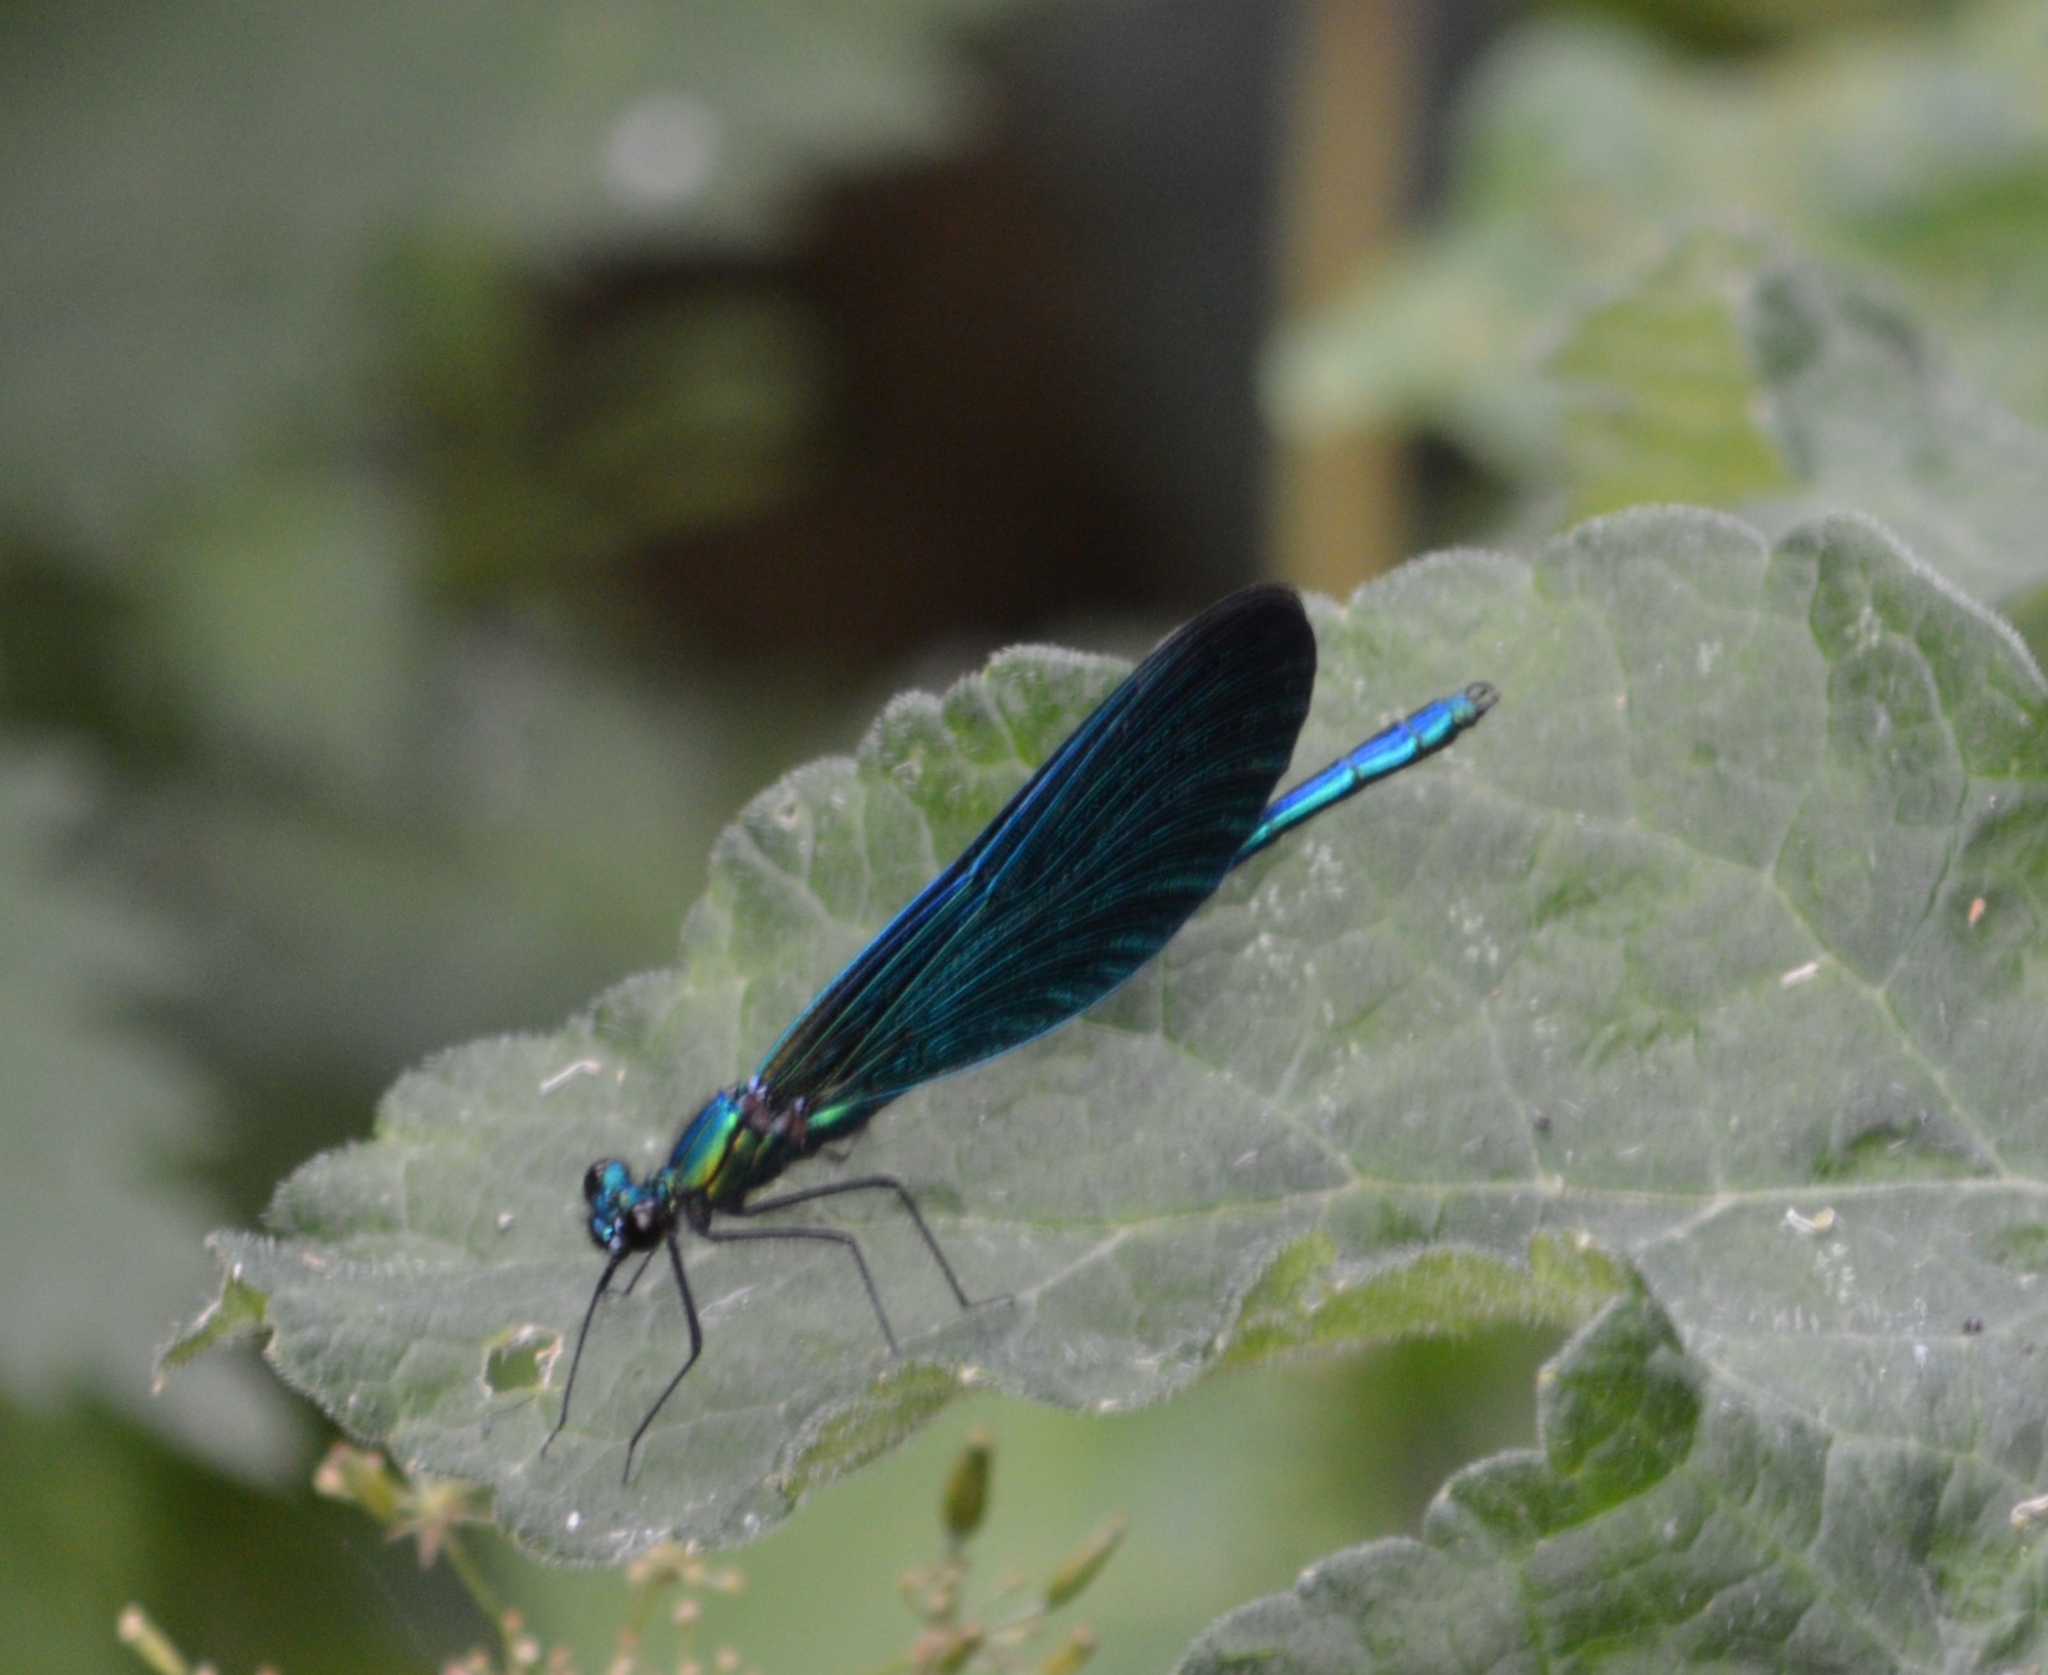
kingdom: Animalia
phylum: Arthropoda
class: Insecta
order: Odonata
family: Calopterygidae
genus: Calopteryx
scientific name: Calopteryx virgo
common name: Beautiful demoiselle
